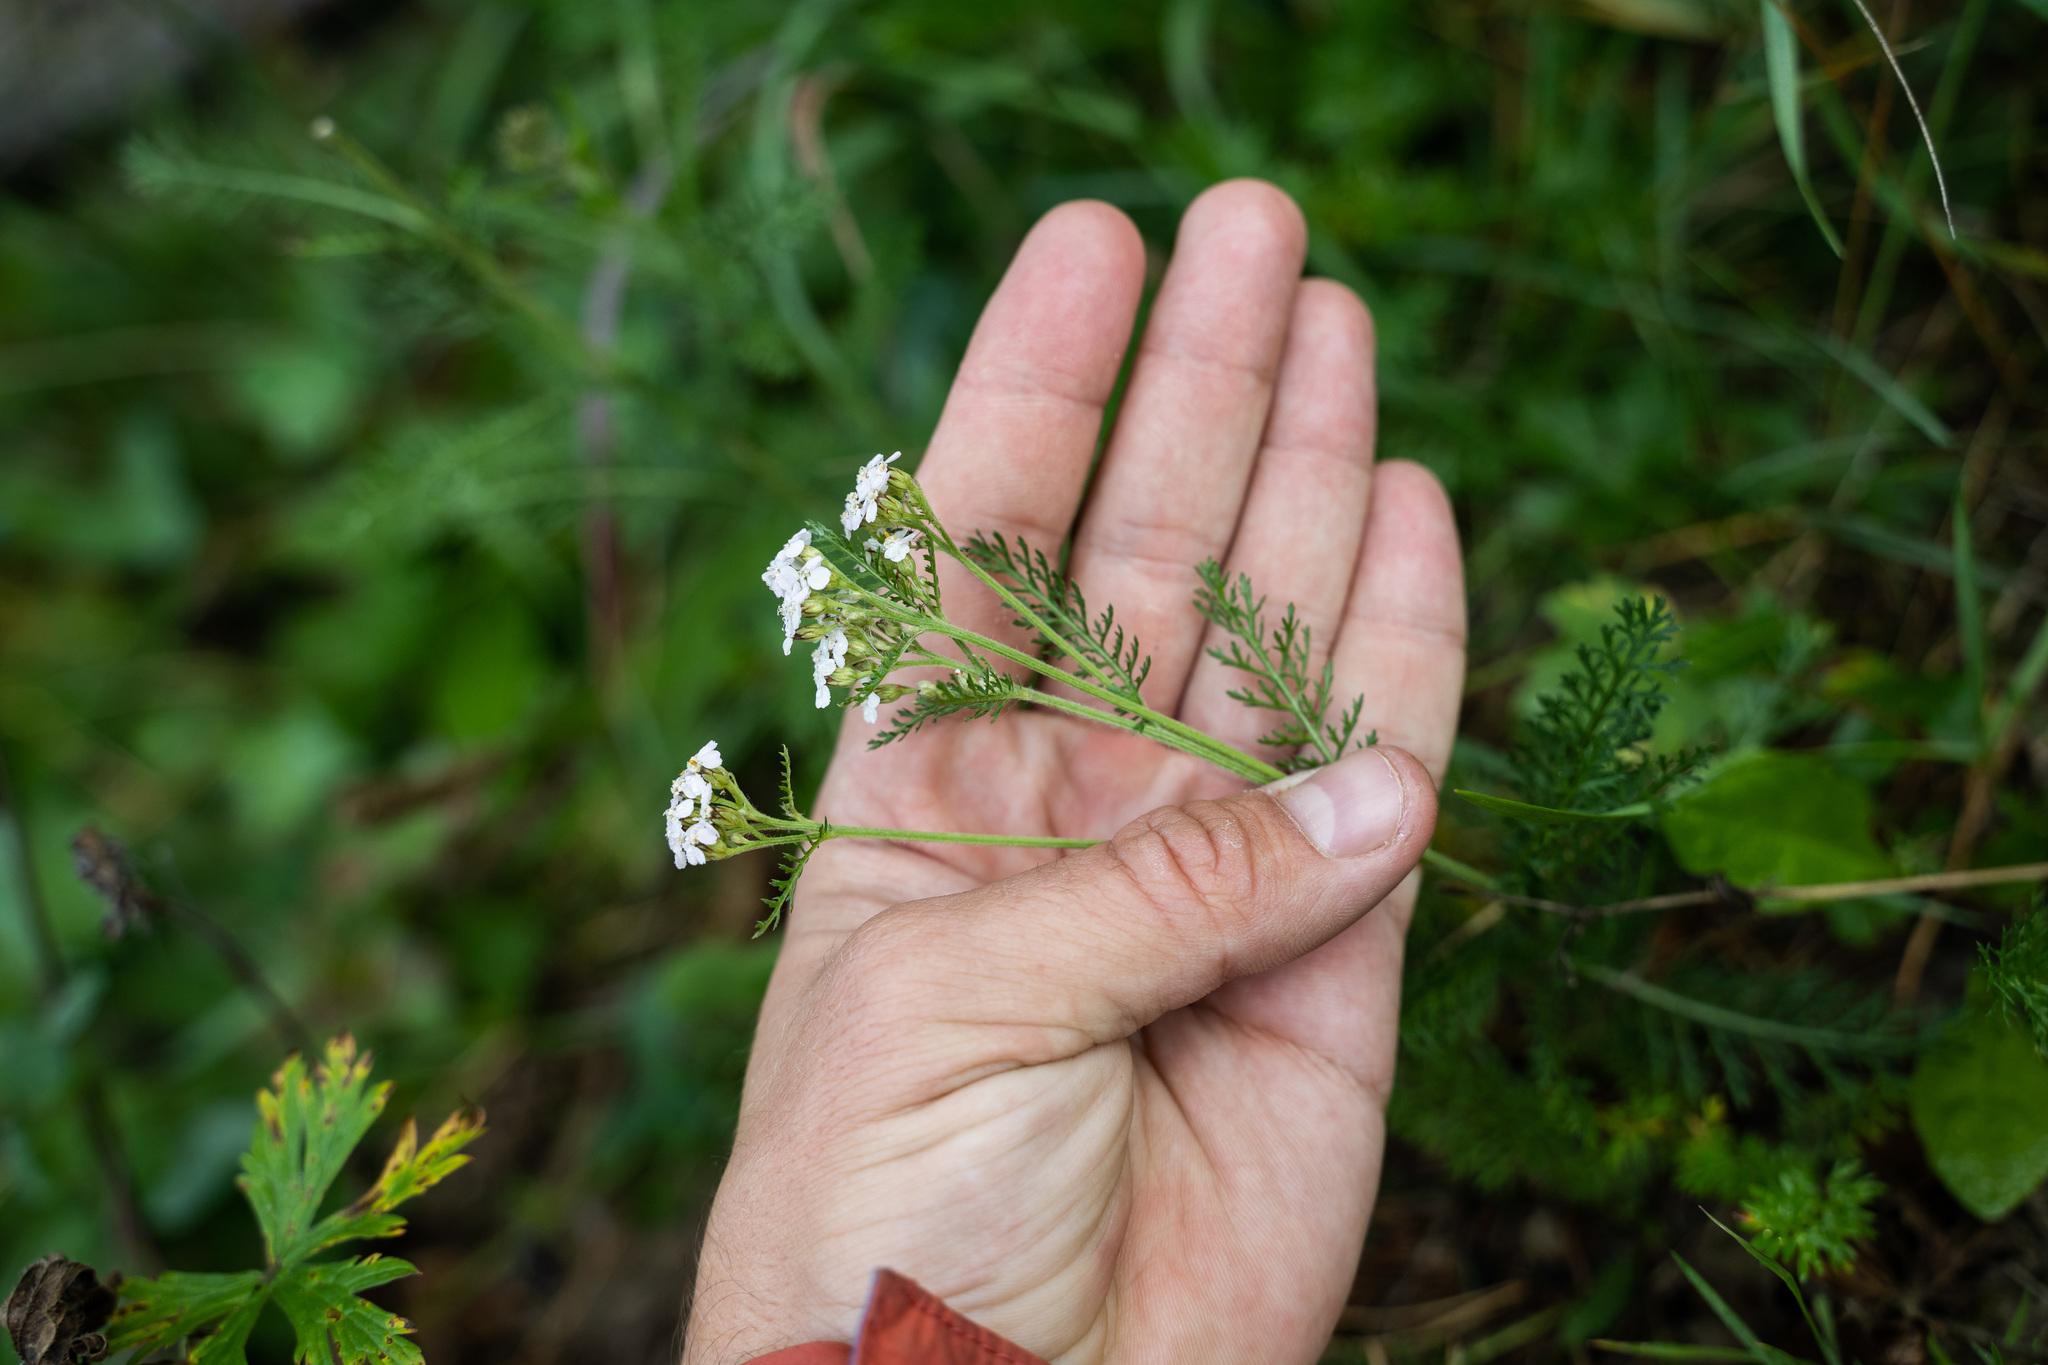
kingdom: Plantae
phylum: Tracheophyta
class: Magnoliopsida
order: Asterales
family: Asteraceae
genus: Achillea
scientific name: Achillea millefolium
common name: Yarrow
